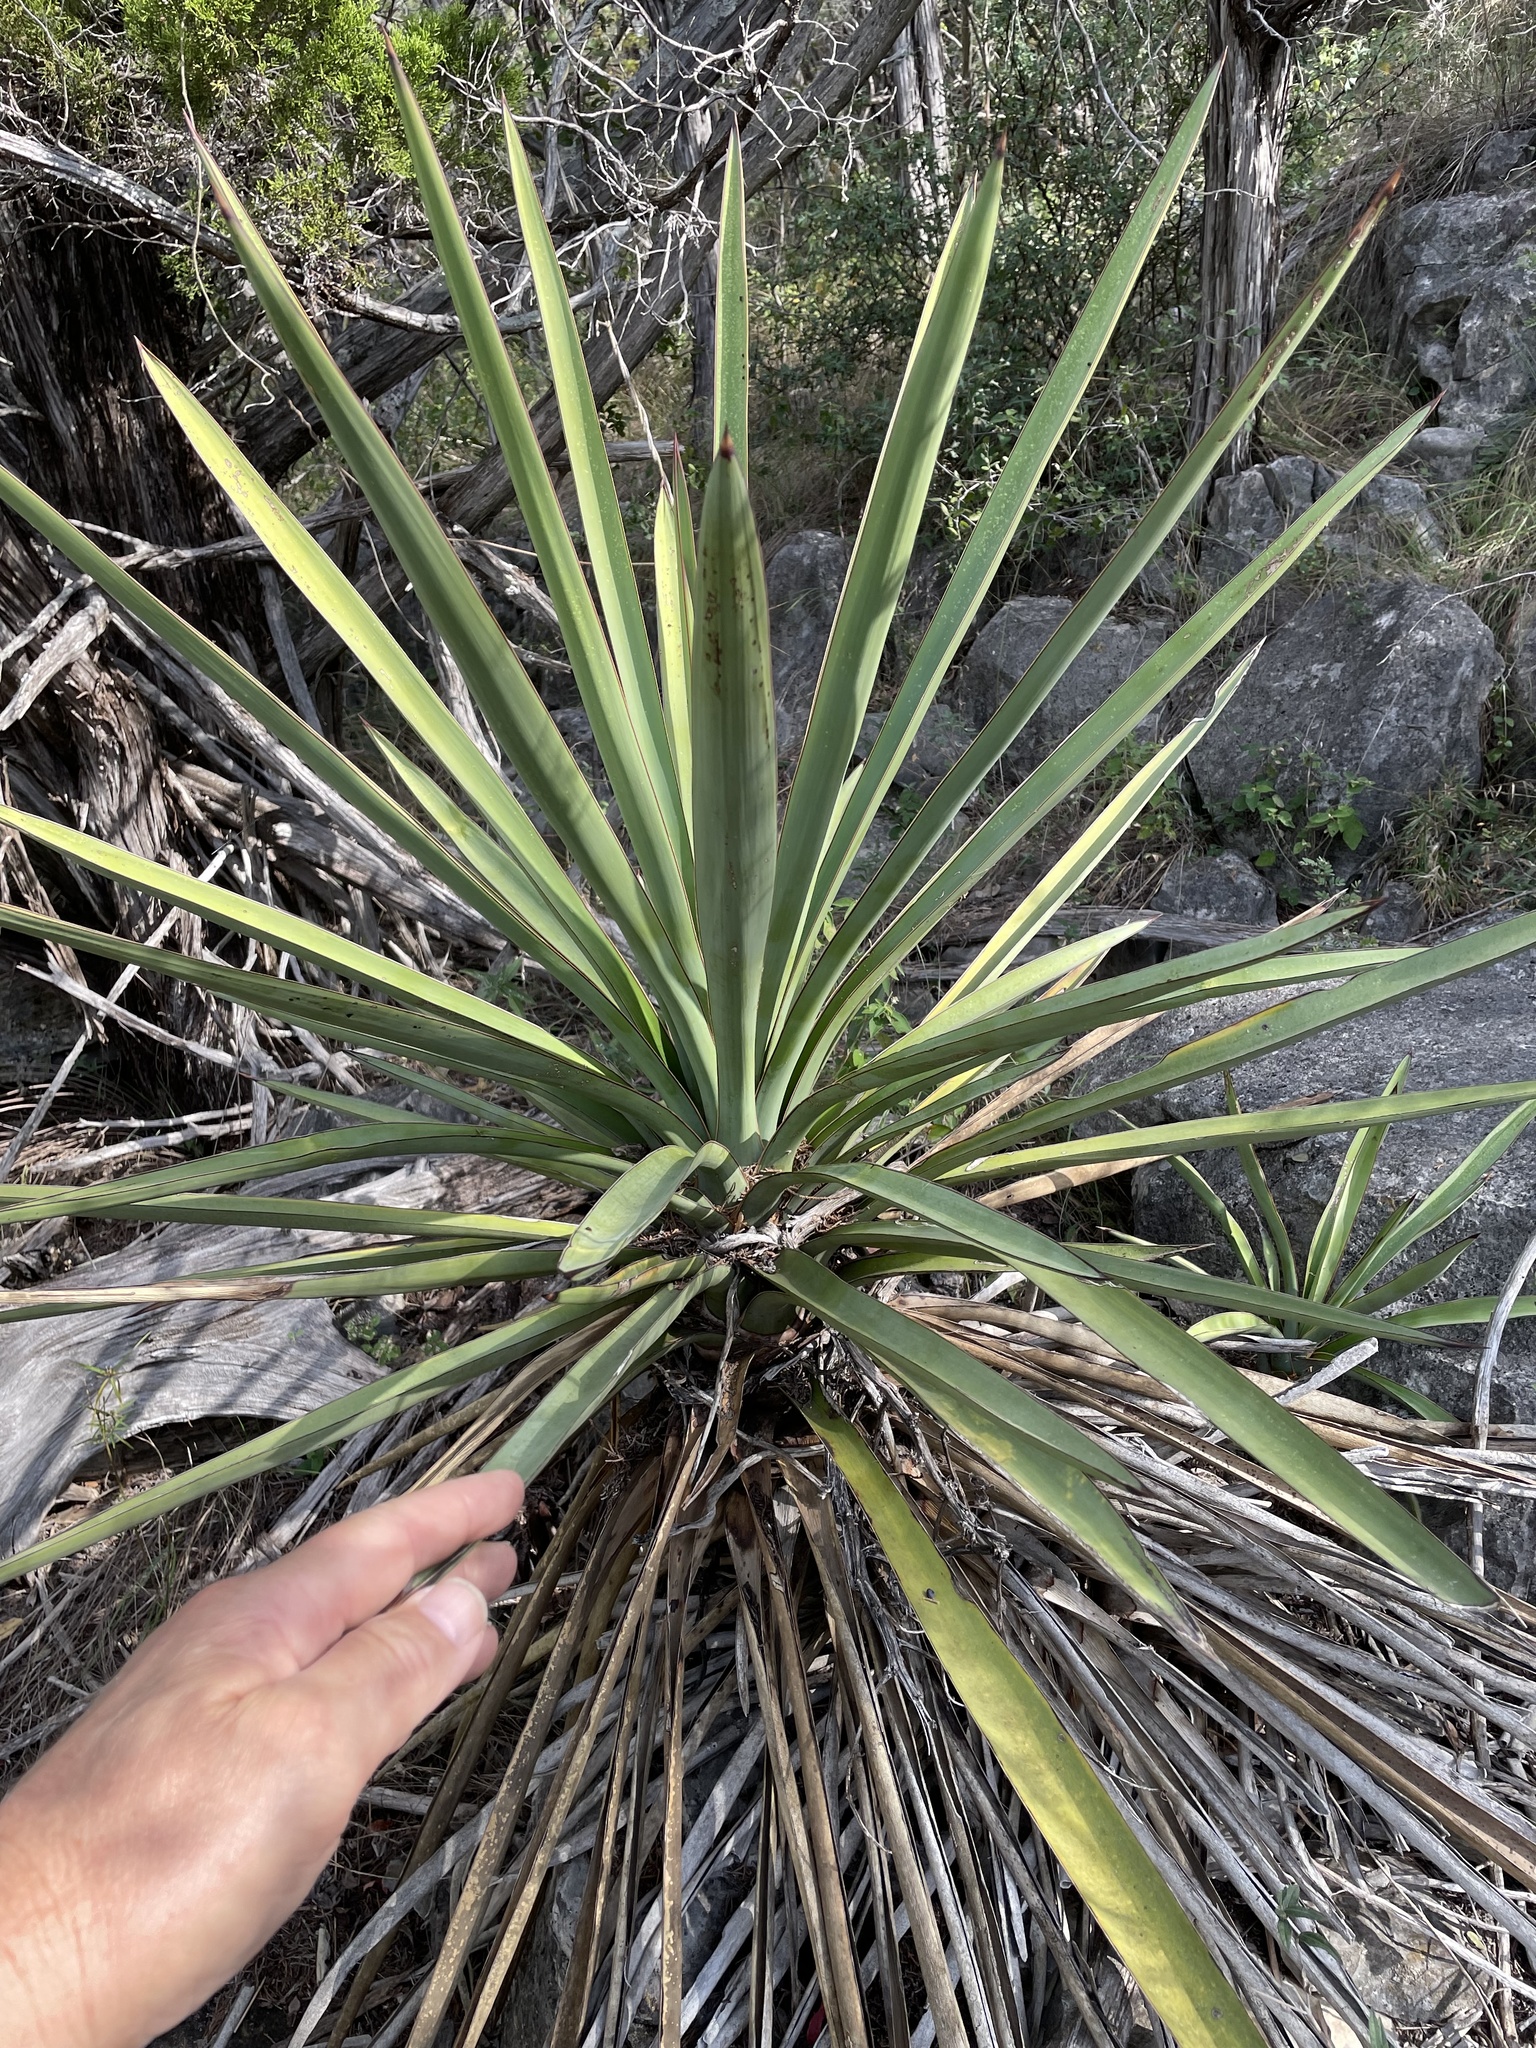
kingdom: Plantae
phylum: Tracheophyta
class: Liliopsida
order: Asparagales
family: Asparagaceae
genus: Yucca
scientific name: Yucca treculiana
